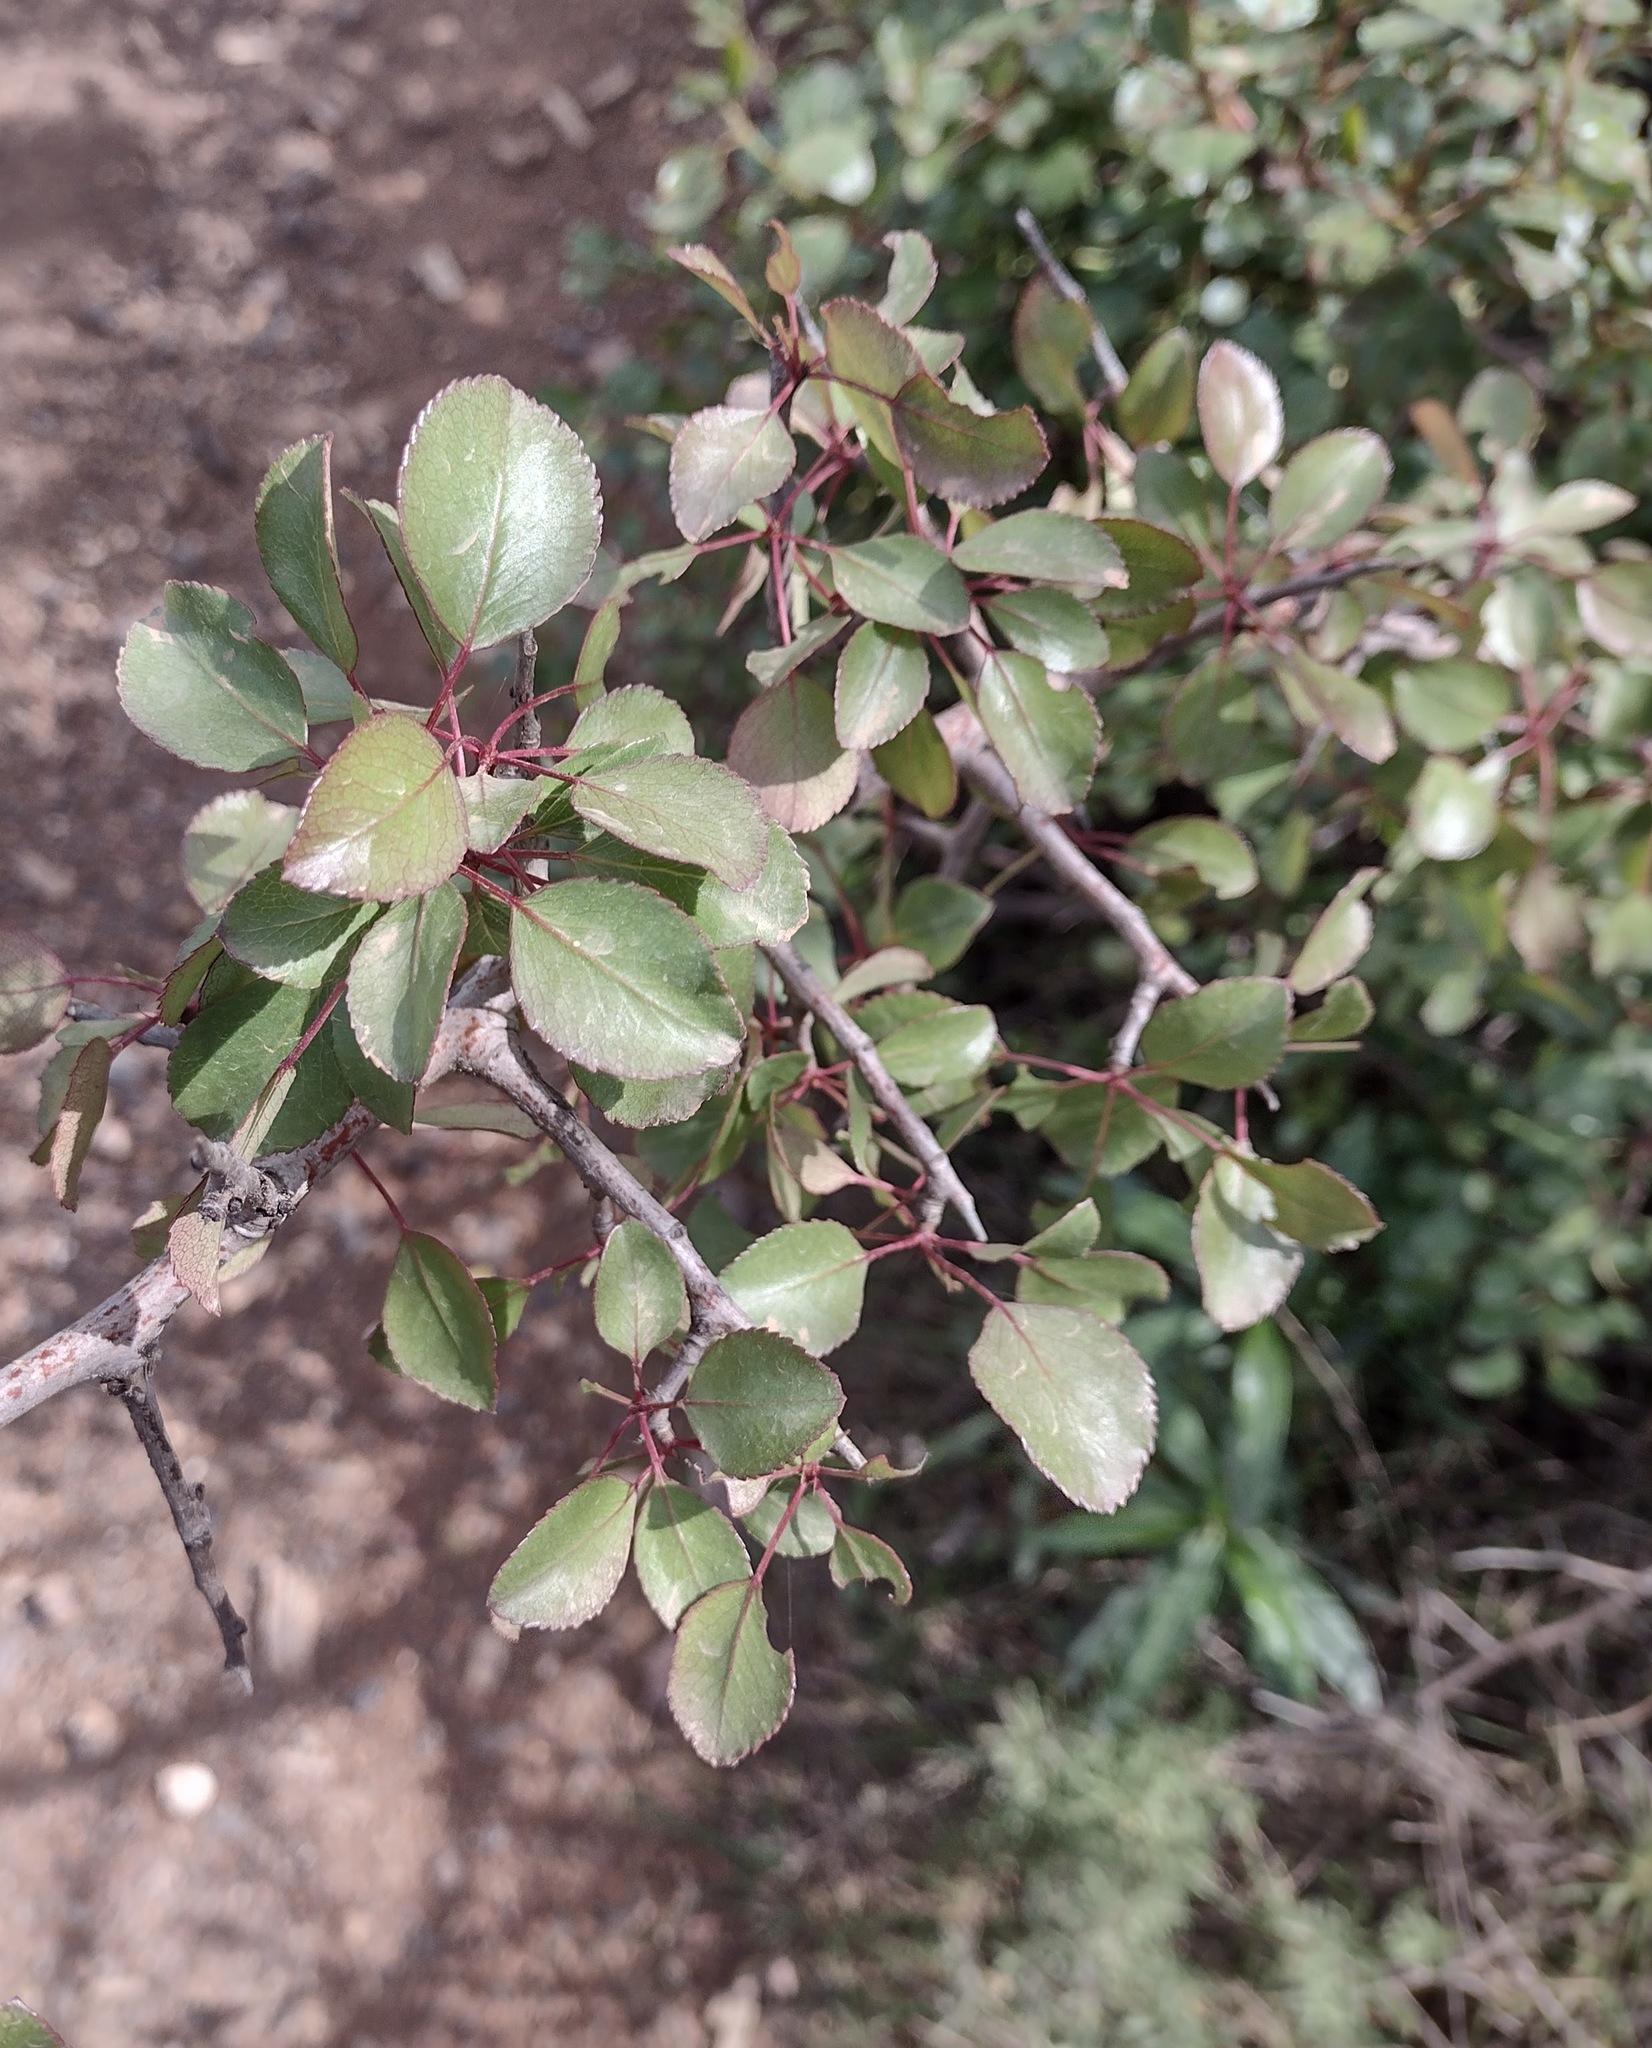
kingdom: Plantae
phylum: Tracheophyta
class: Magnoliopsida
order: Rosales
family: Rosaceae
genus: Pyrus
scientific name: Pyrus bourgaeana
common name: Iberian pear
